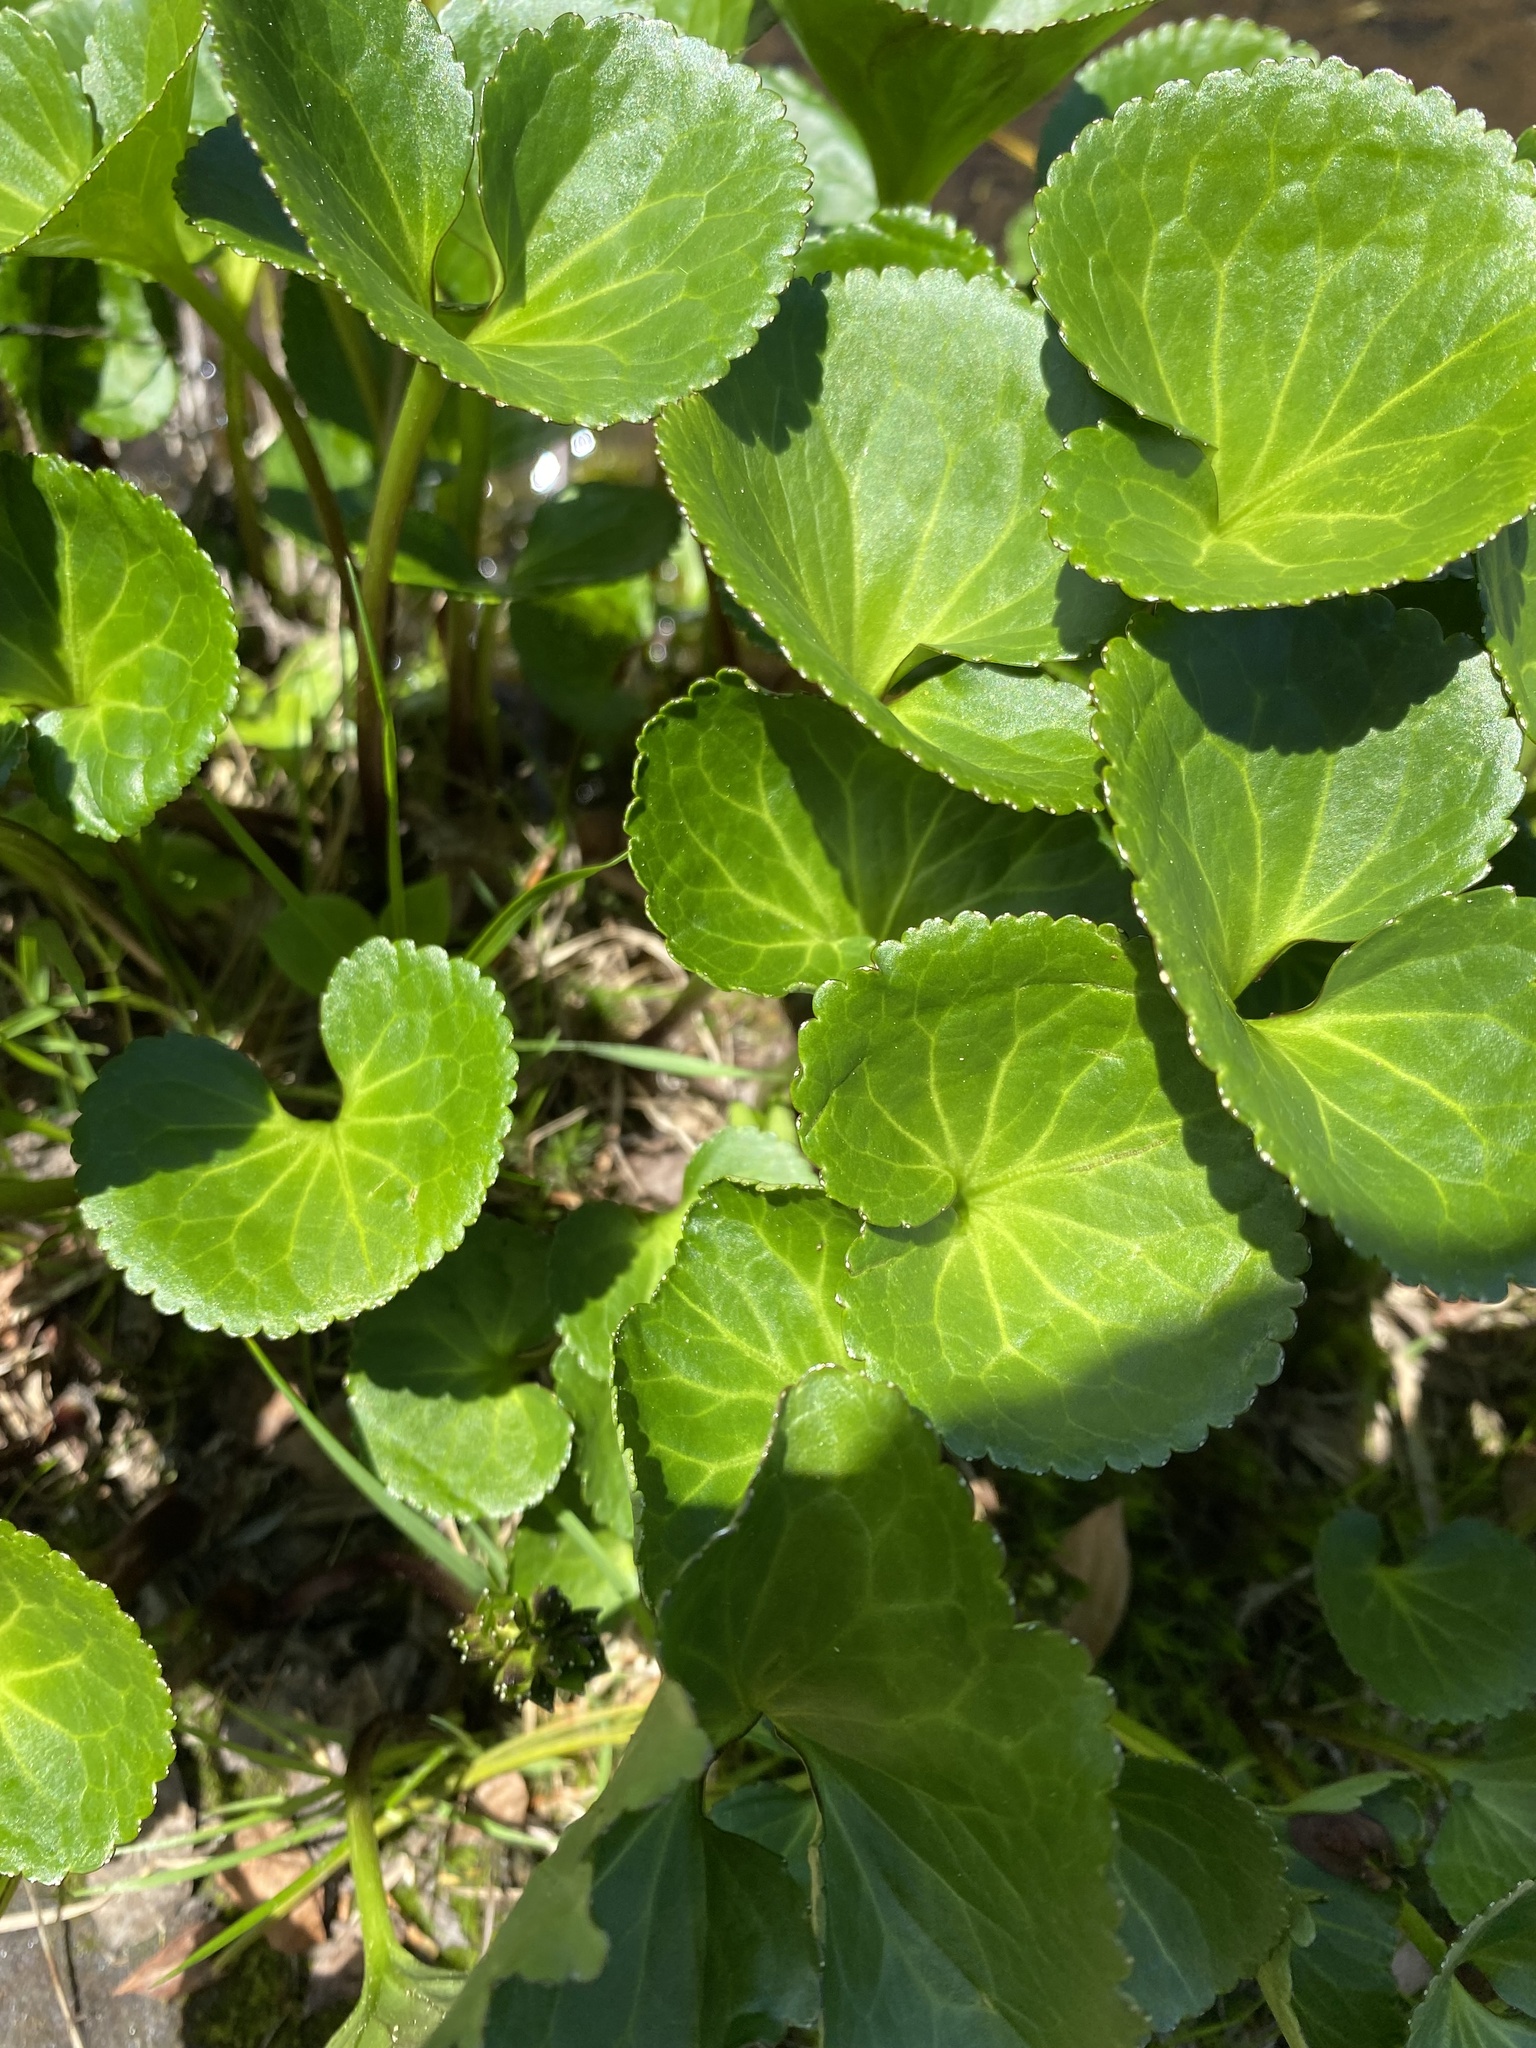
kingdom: Plantae
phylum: Tracheophyta
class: Magnoliopsida
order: Asterales
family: Menyanthaceae
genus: Nephrophyllidium
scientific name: Nephrophyllidium crista-galli
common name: Deer-cabbage
